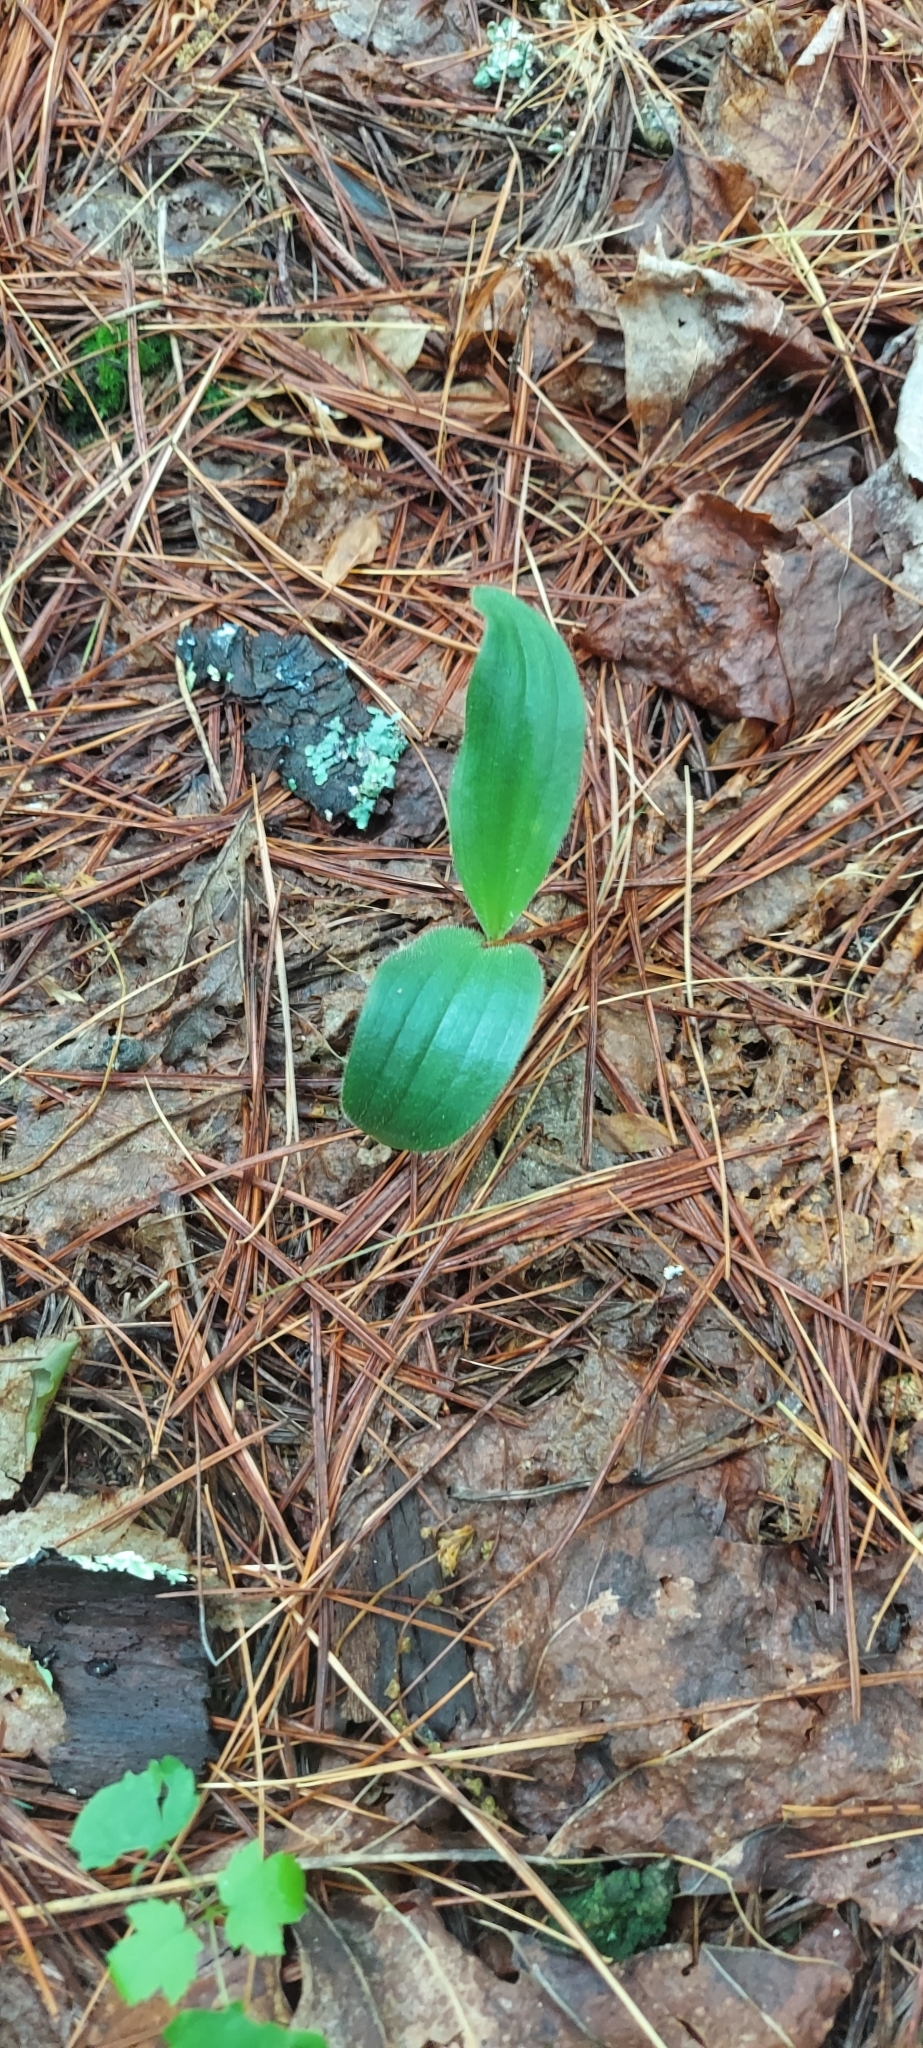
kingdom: Plantae
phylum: Tracheophyta
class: Liliopsida
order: Asparagales
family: Orchidaceae
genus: Cypripedium
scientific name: Cypripedium acaule
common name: Pink lady's-slipper
